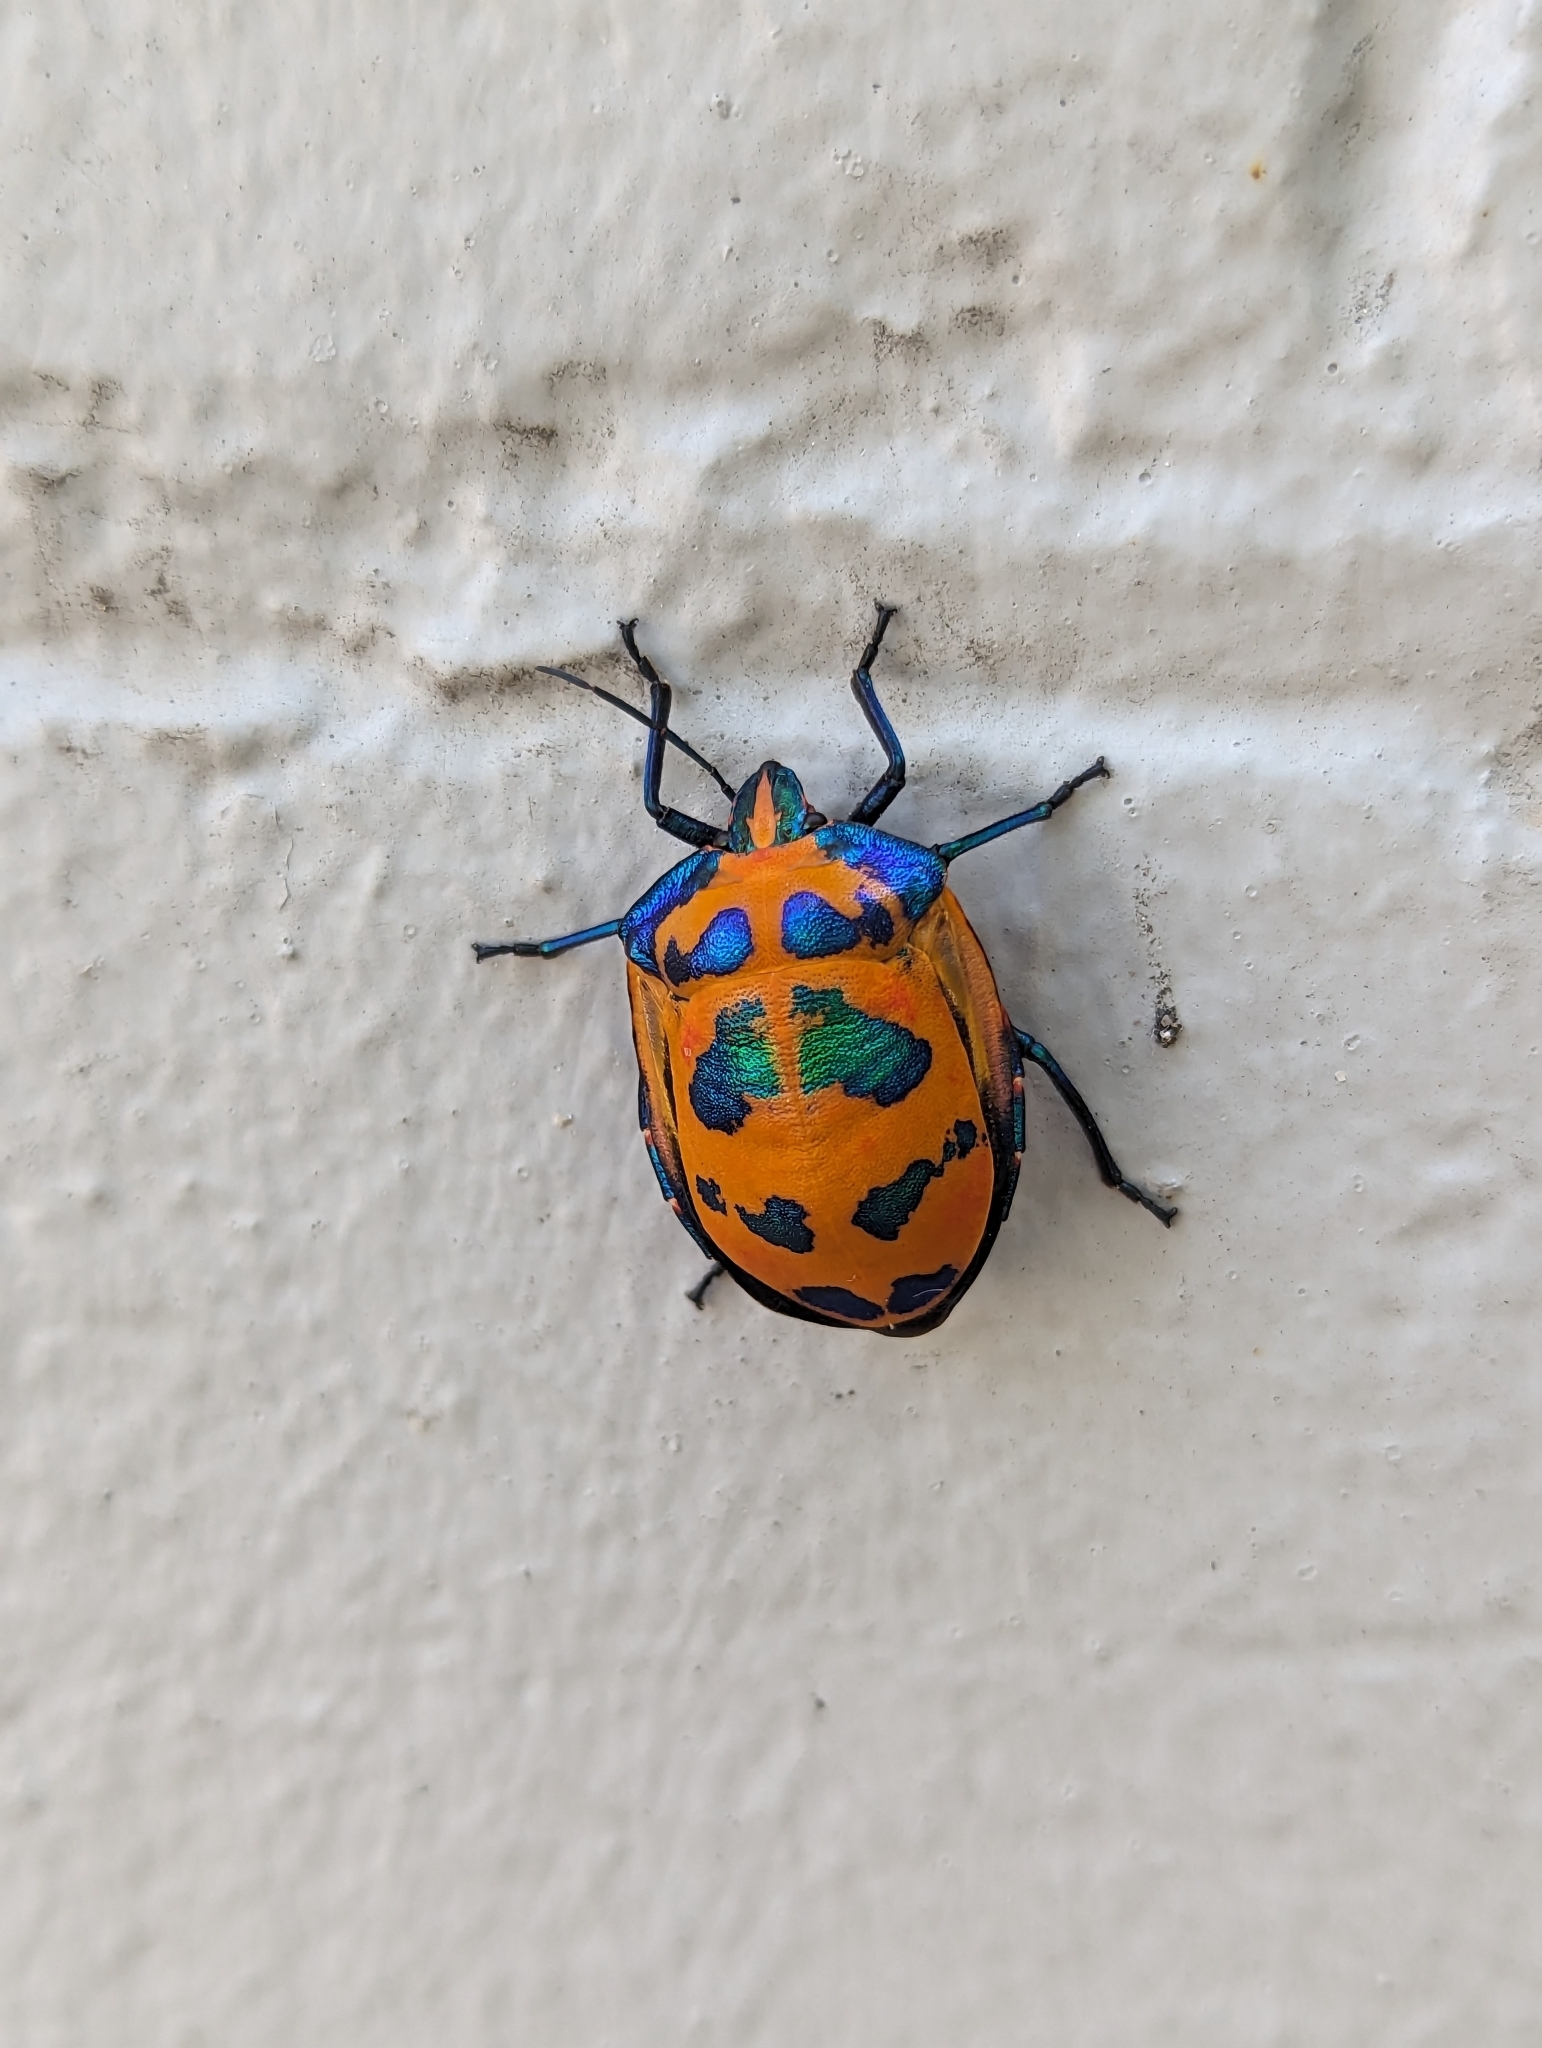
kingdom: Animalia
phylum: Arthropoda
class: Insecta
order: Hemiptera
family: Scutelleridae
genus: Tectocoris
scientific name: Tectocoris diophthalmus
